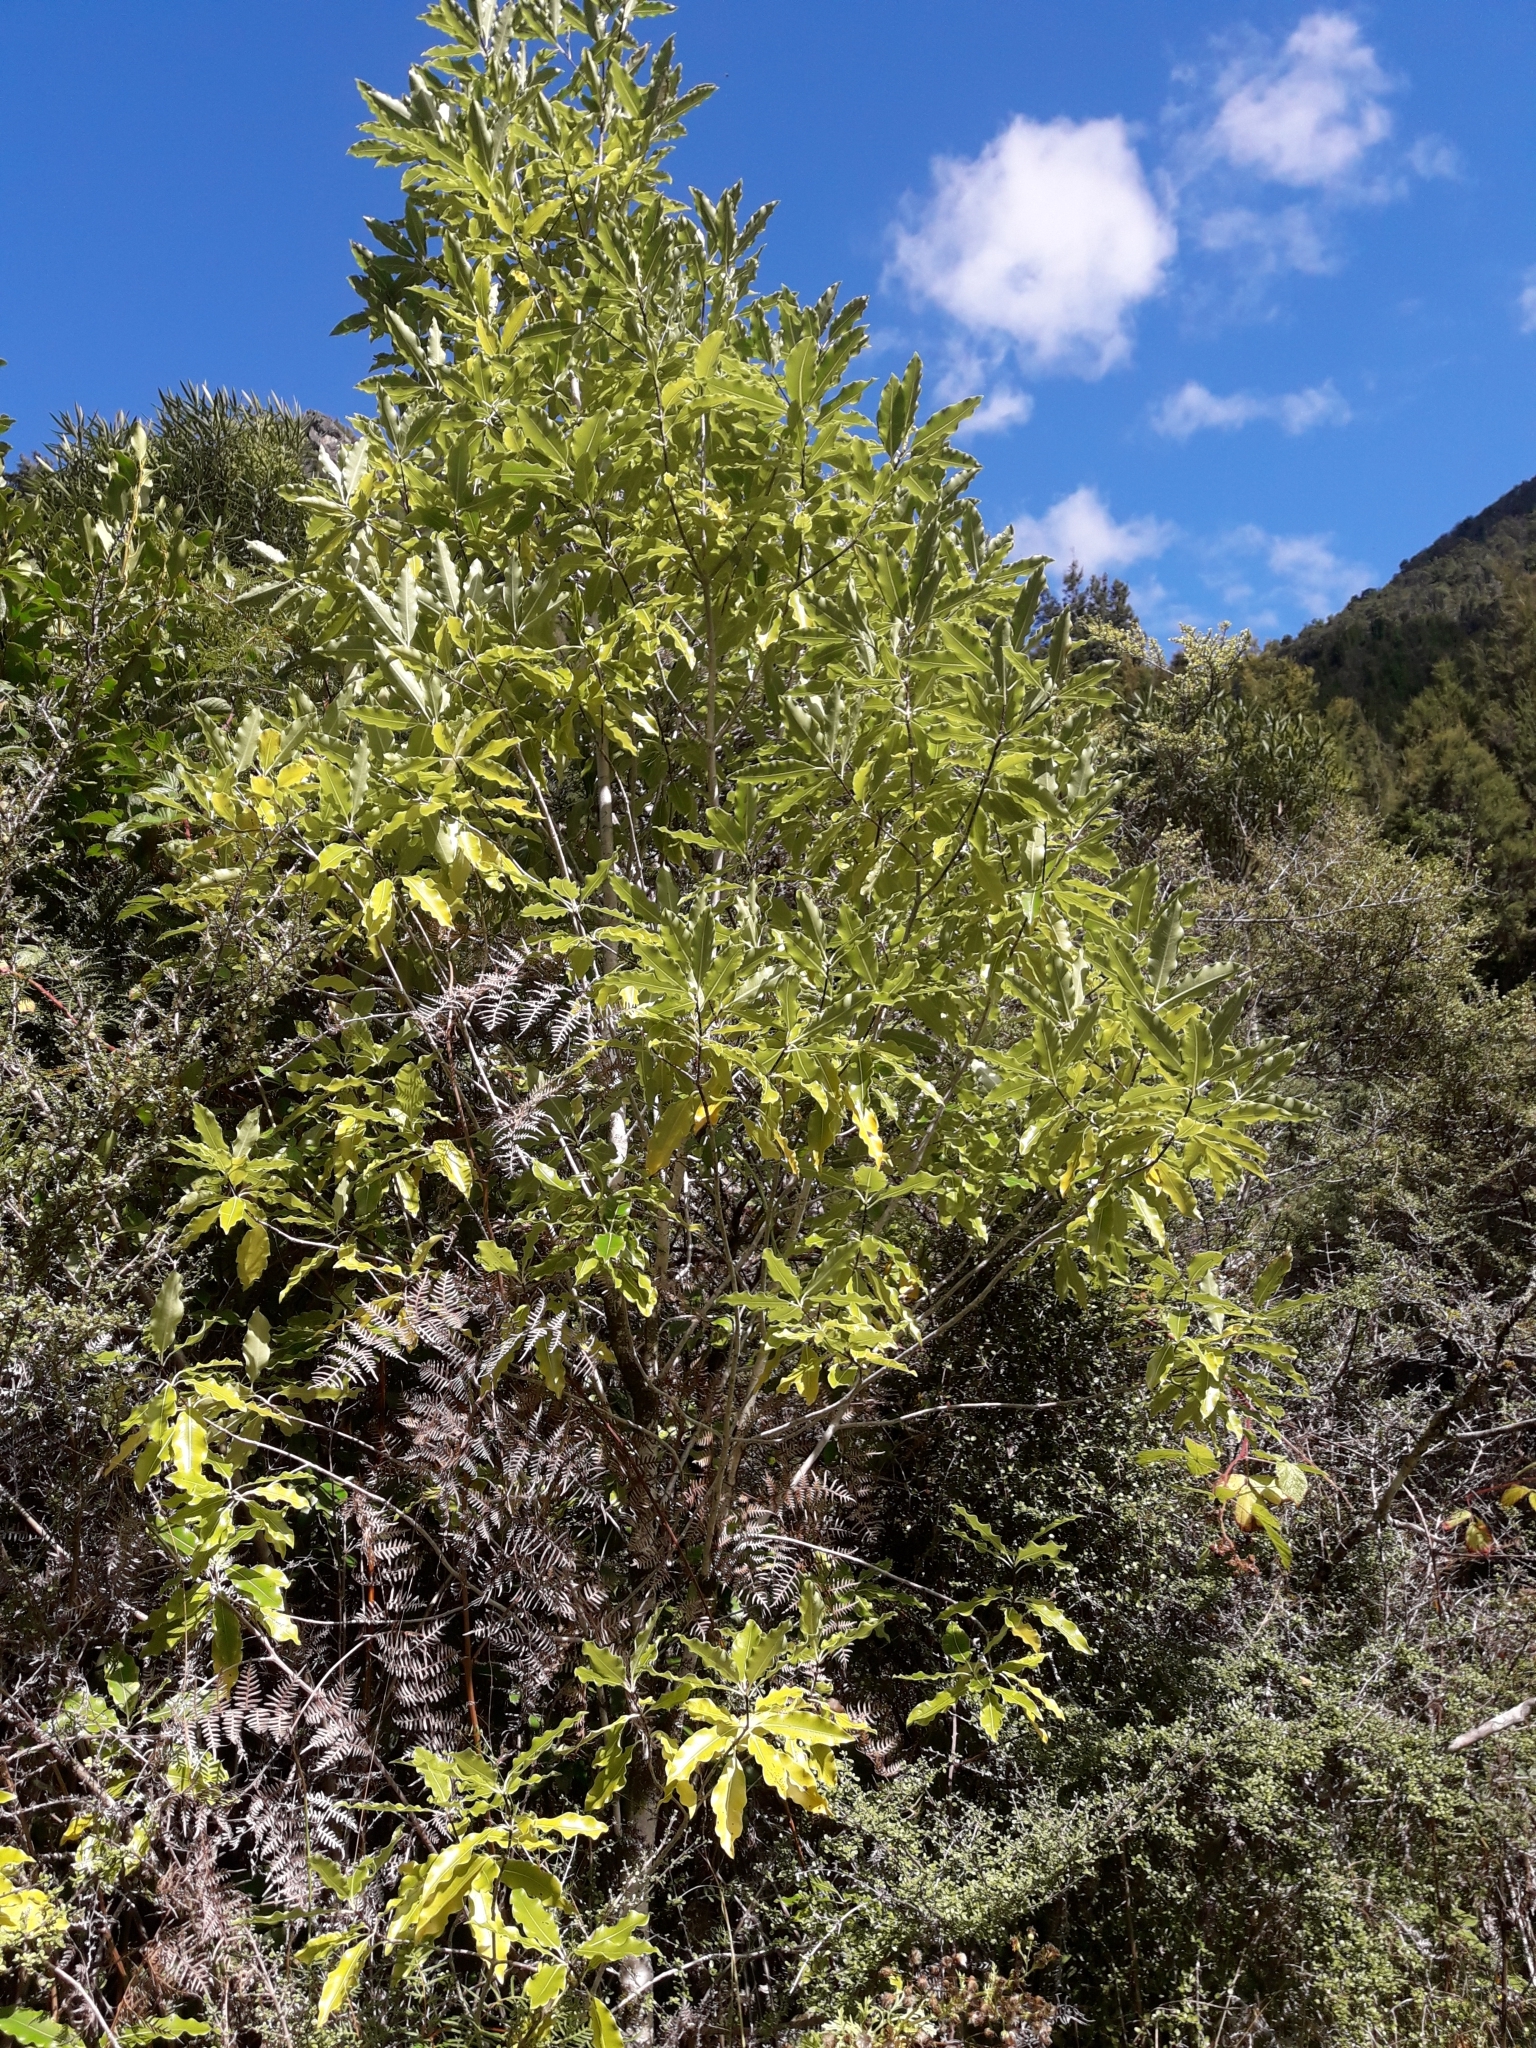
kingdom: Plantae
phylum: Tracheophyta
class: Magnoliopsida
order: Apiales
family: Pittosporaceae
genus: Pittosporum
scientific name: Pittosporum eugenioides
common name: Lemonwood
